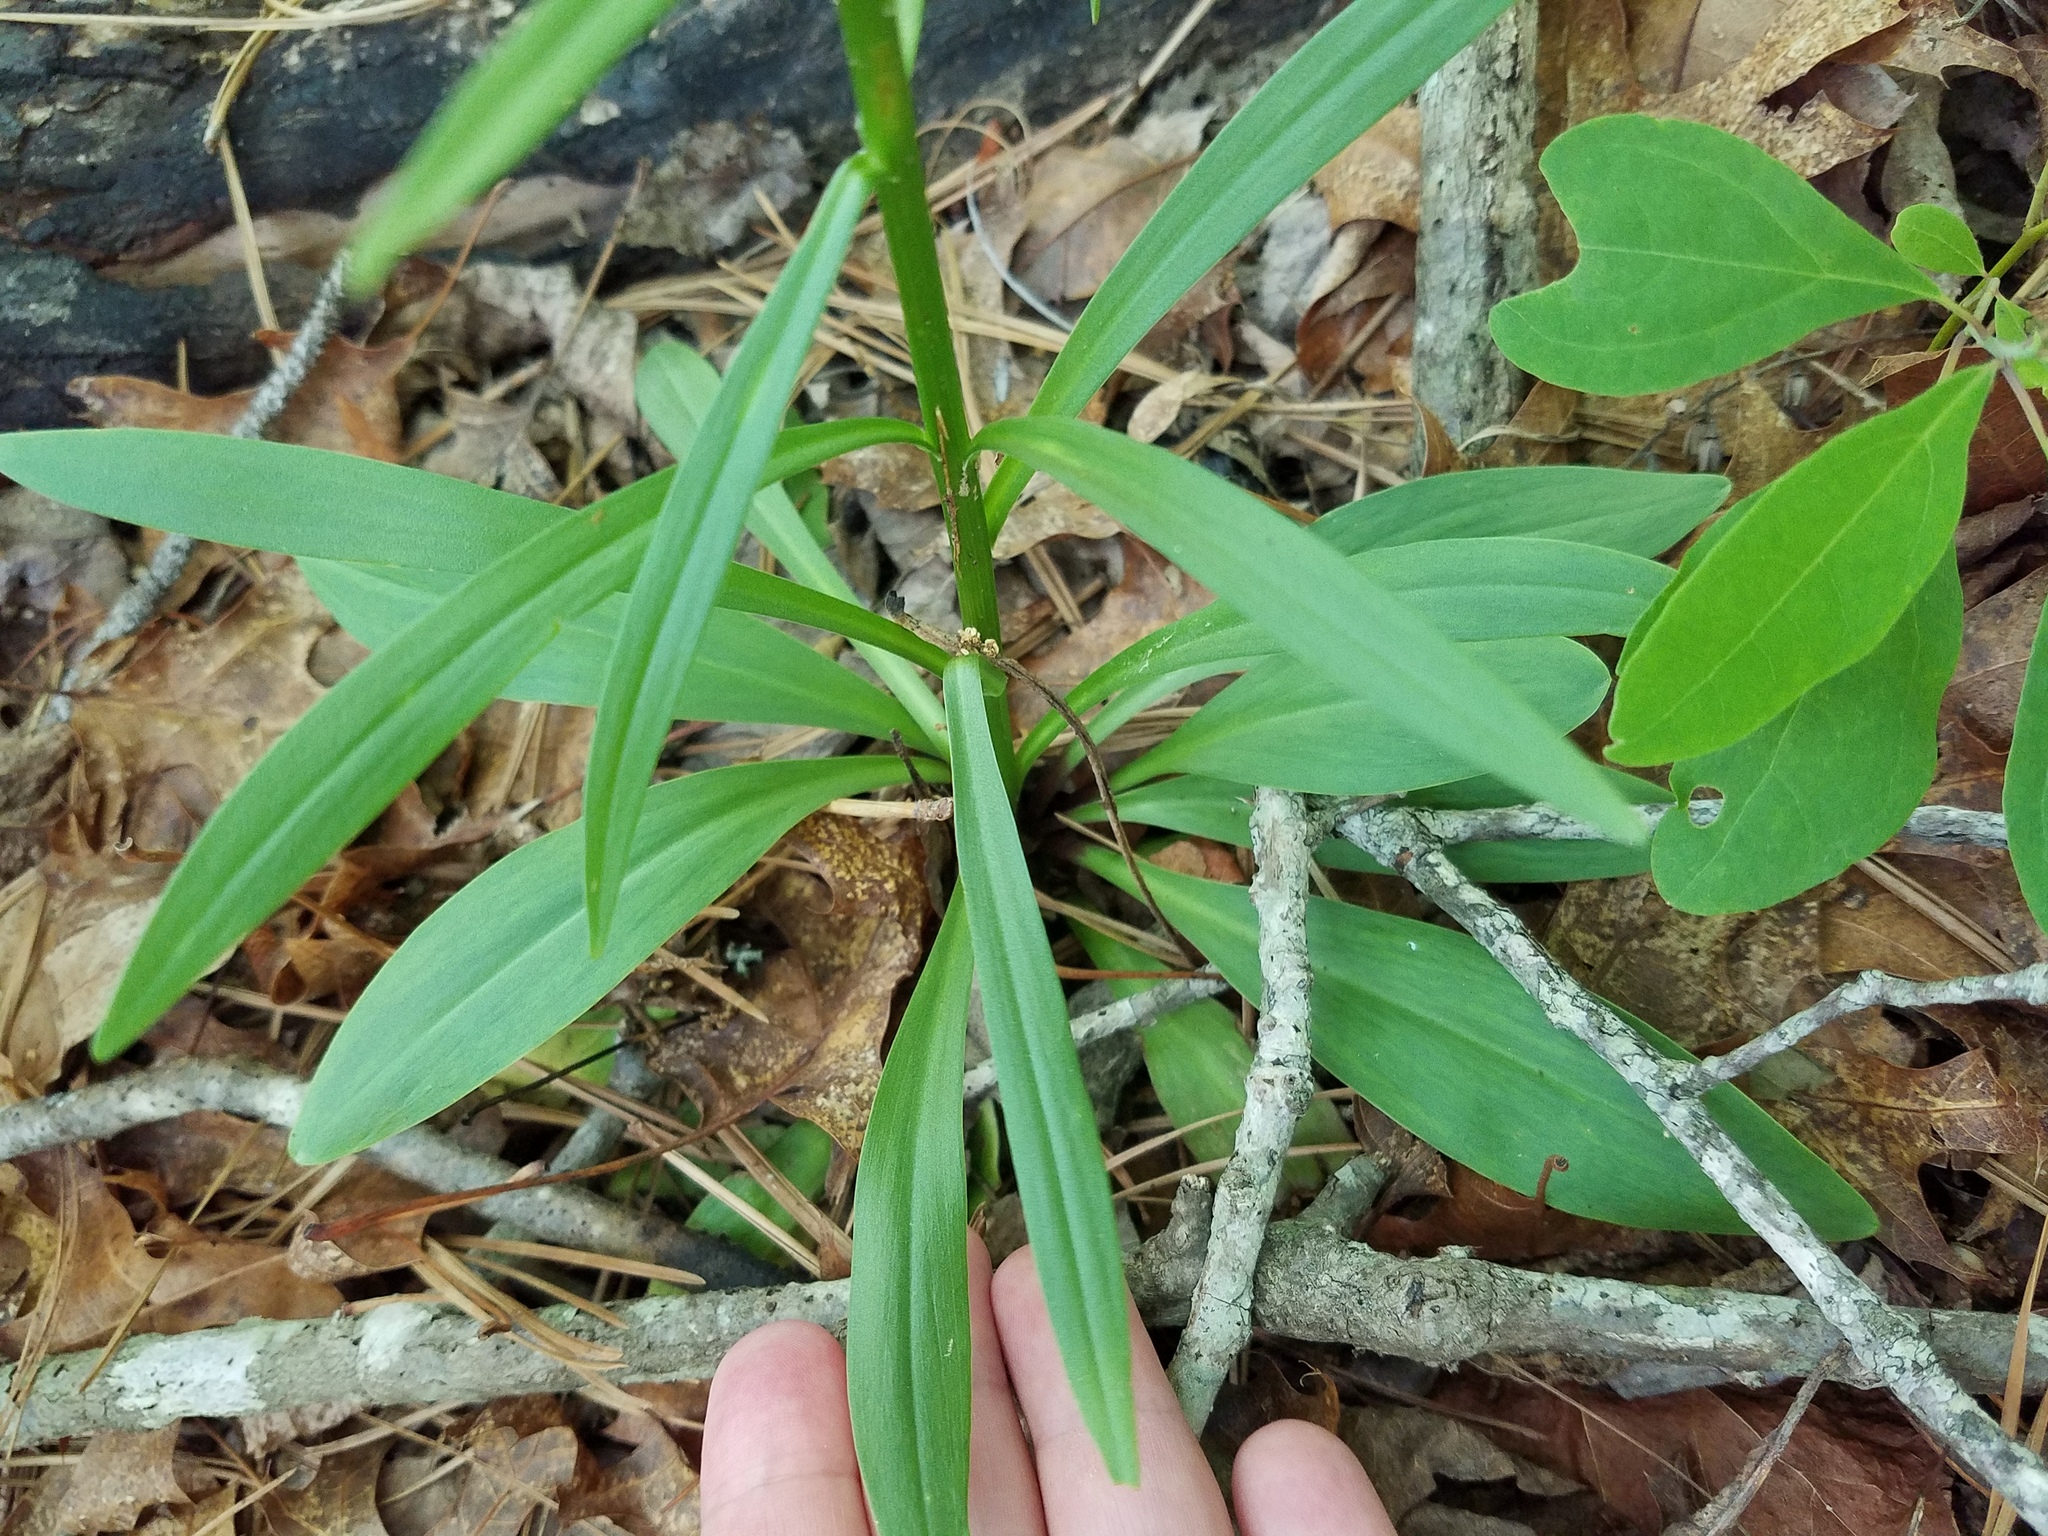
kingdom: Plantae
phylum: Tracheophyta
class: Liliopsida
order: Liliales
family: Melanthiaceae
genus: Chamaelirium
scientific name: Chamaelirium luteum
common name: Fairy-wand
